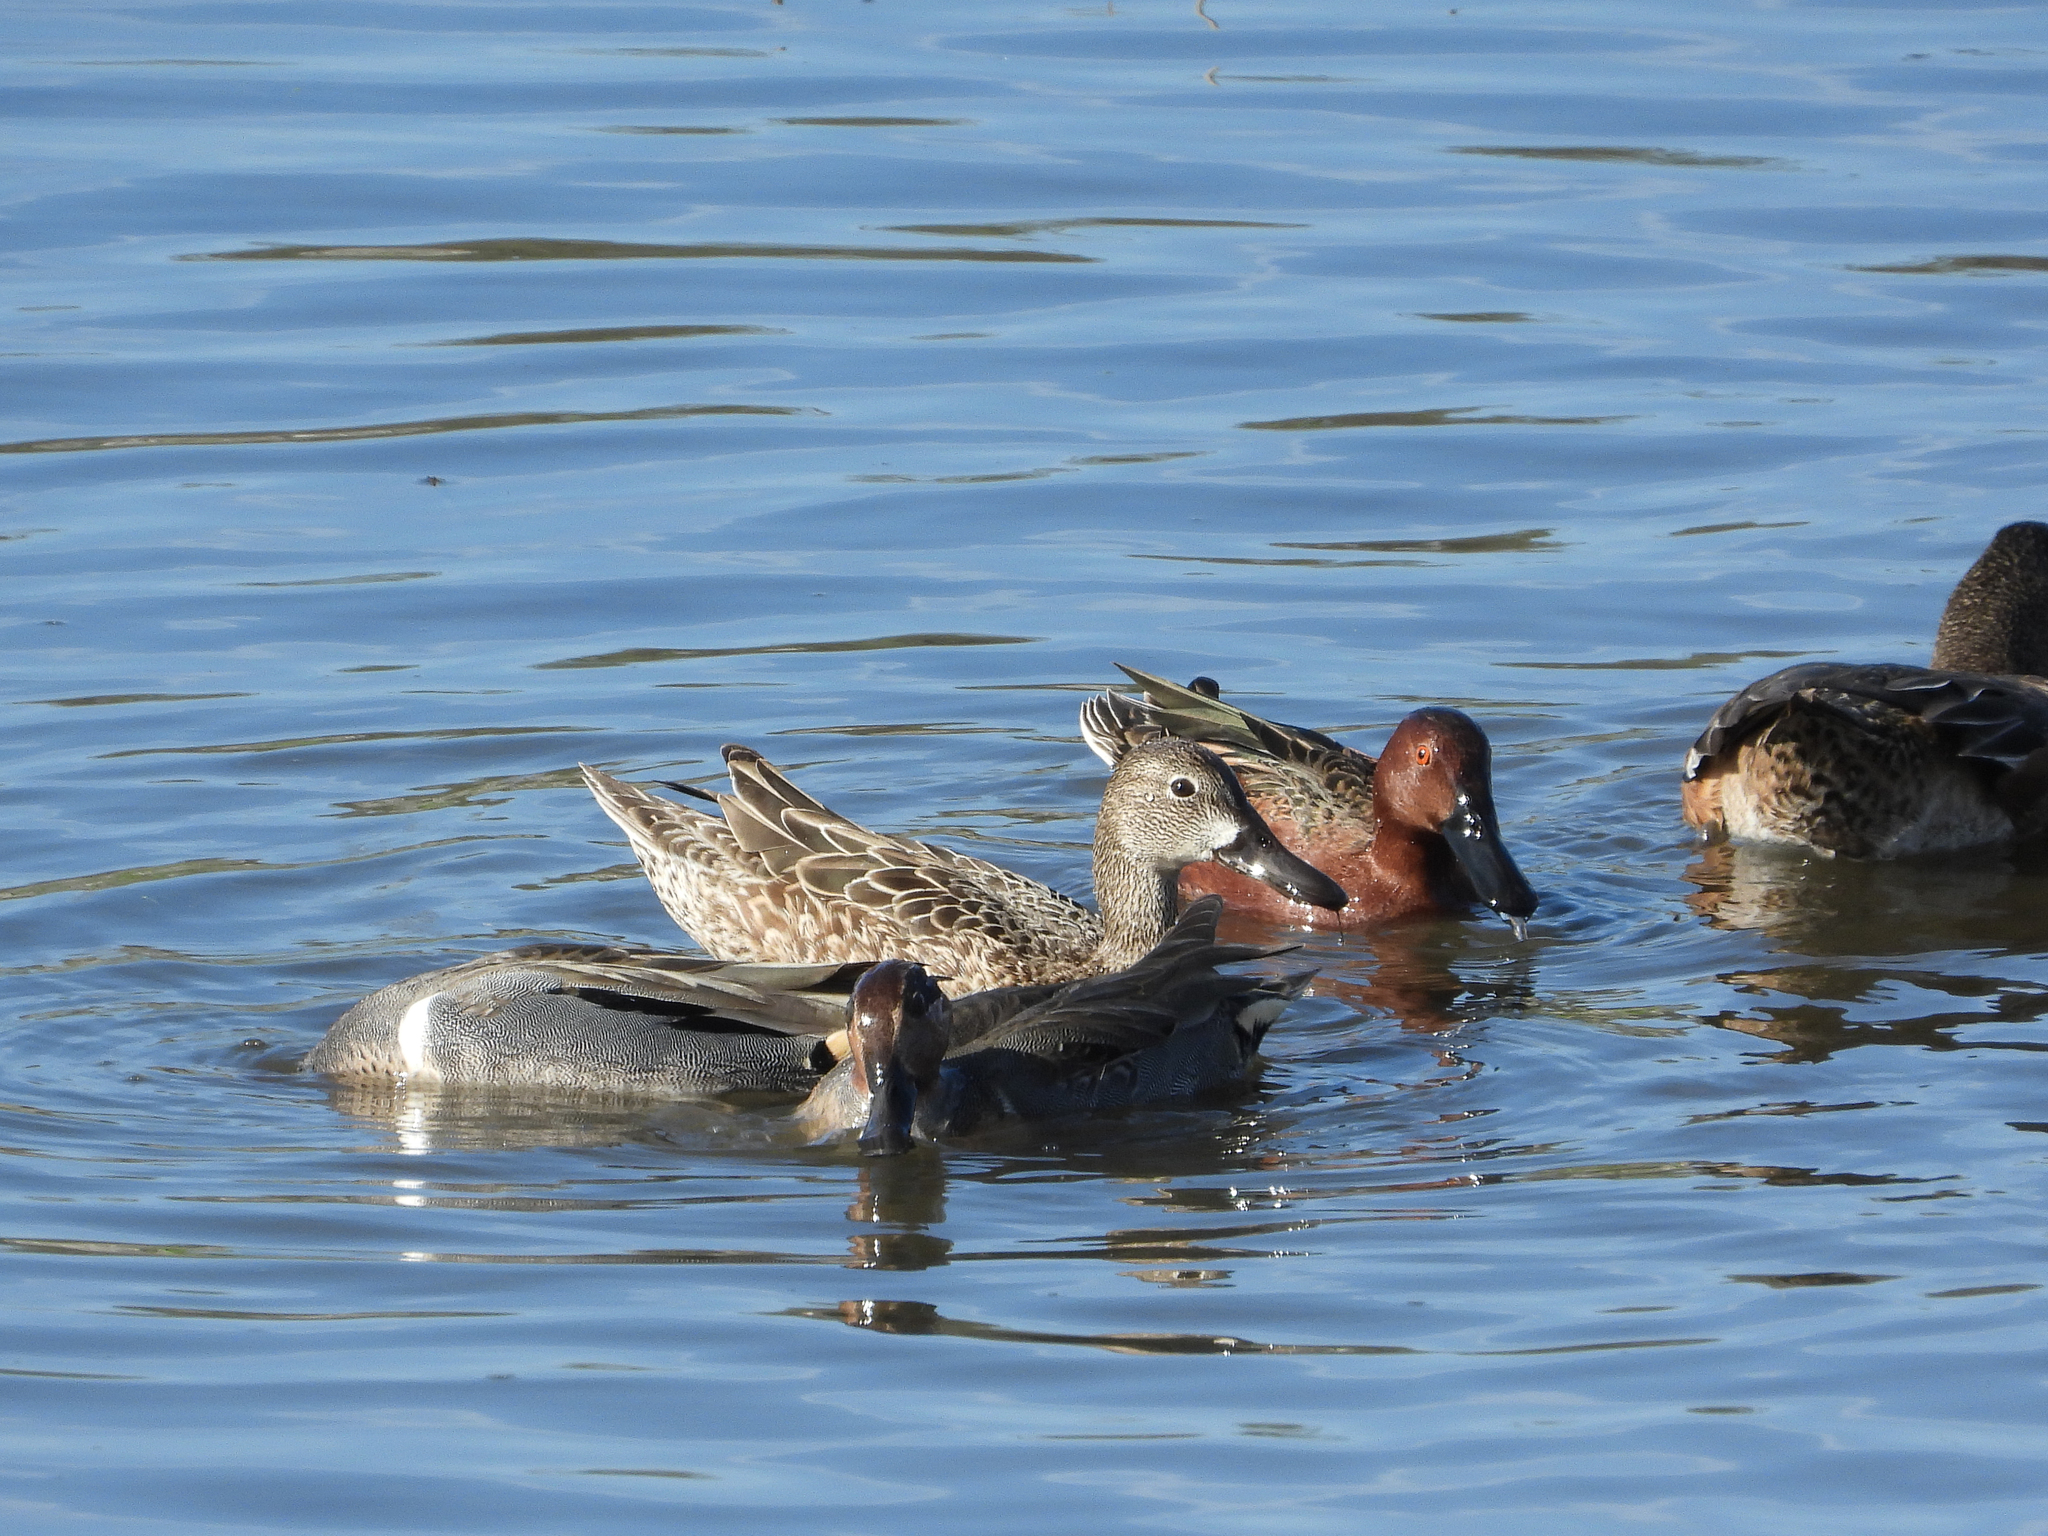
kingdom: Animalia
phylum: Chordata
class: Aves
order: Anseriformes
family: Anatidae
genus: Spatula
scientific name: Spatula cyanoptera
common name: Cinnamon teal
